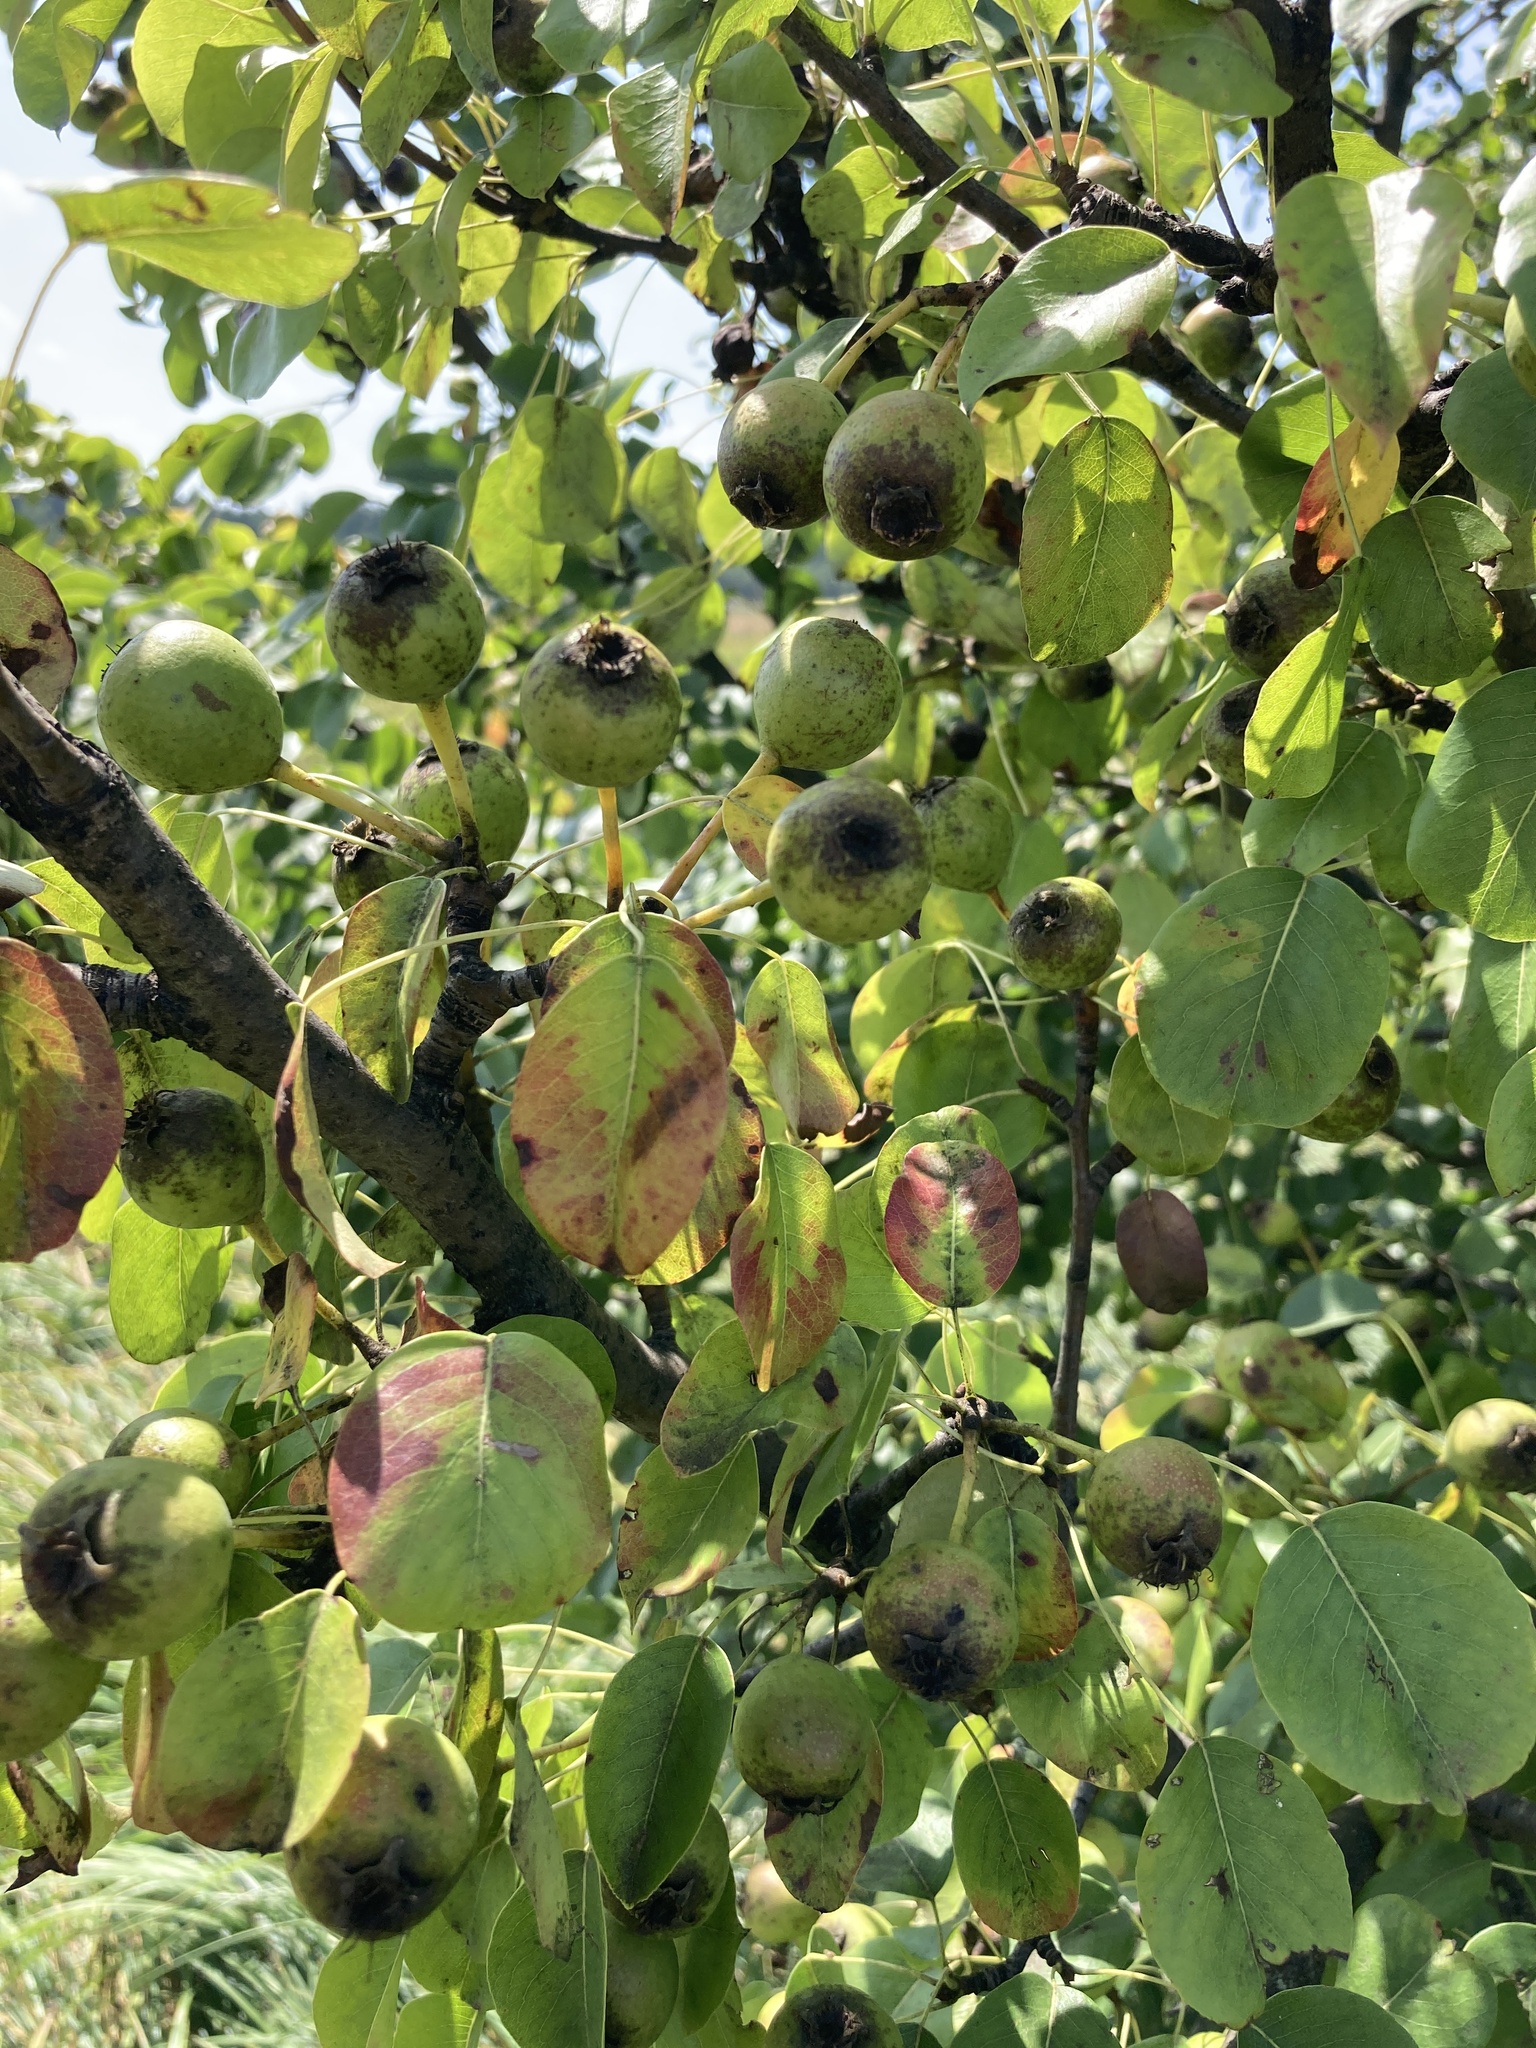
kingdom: Plantae
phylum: Tracheophyta
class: Magnoliopsida
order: Rosales
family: Rosaceae
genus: Pyrus
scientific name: Pyrus communis
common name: Pear
